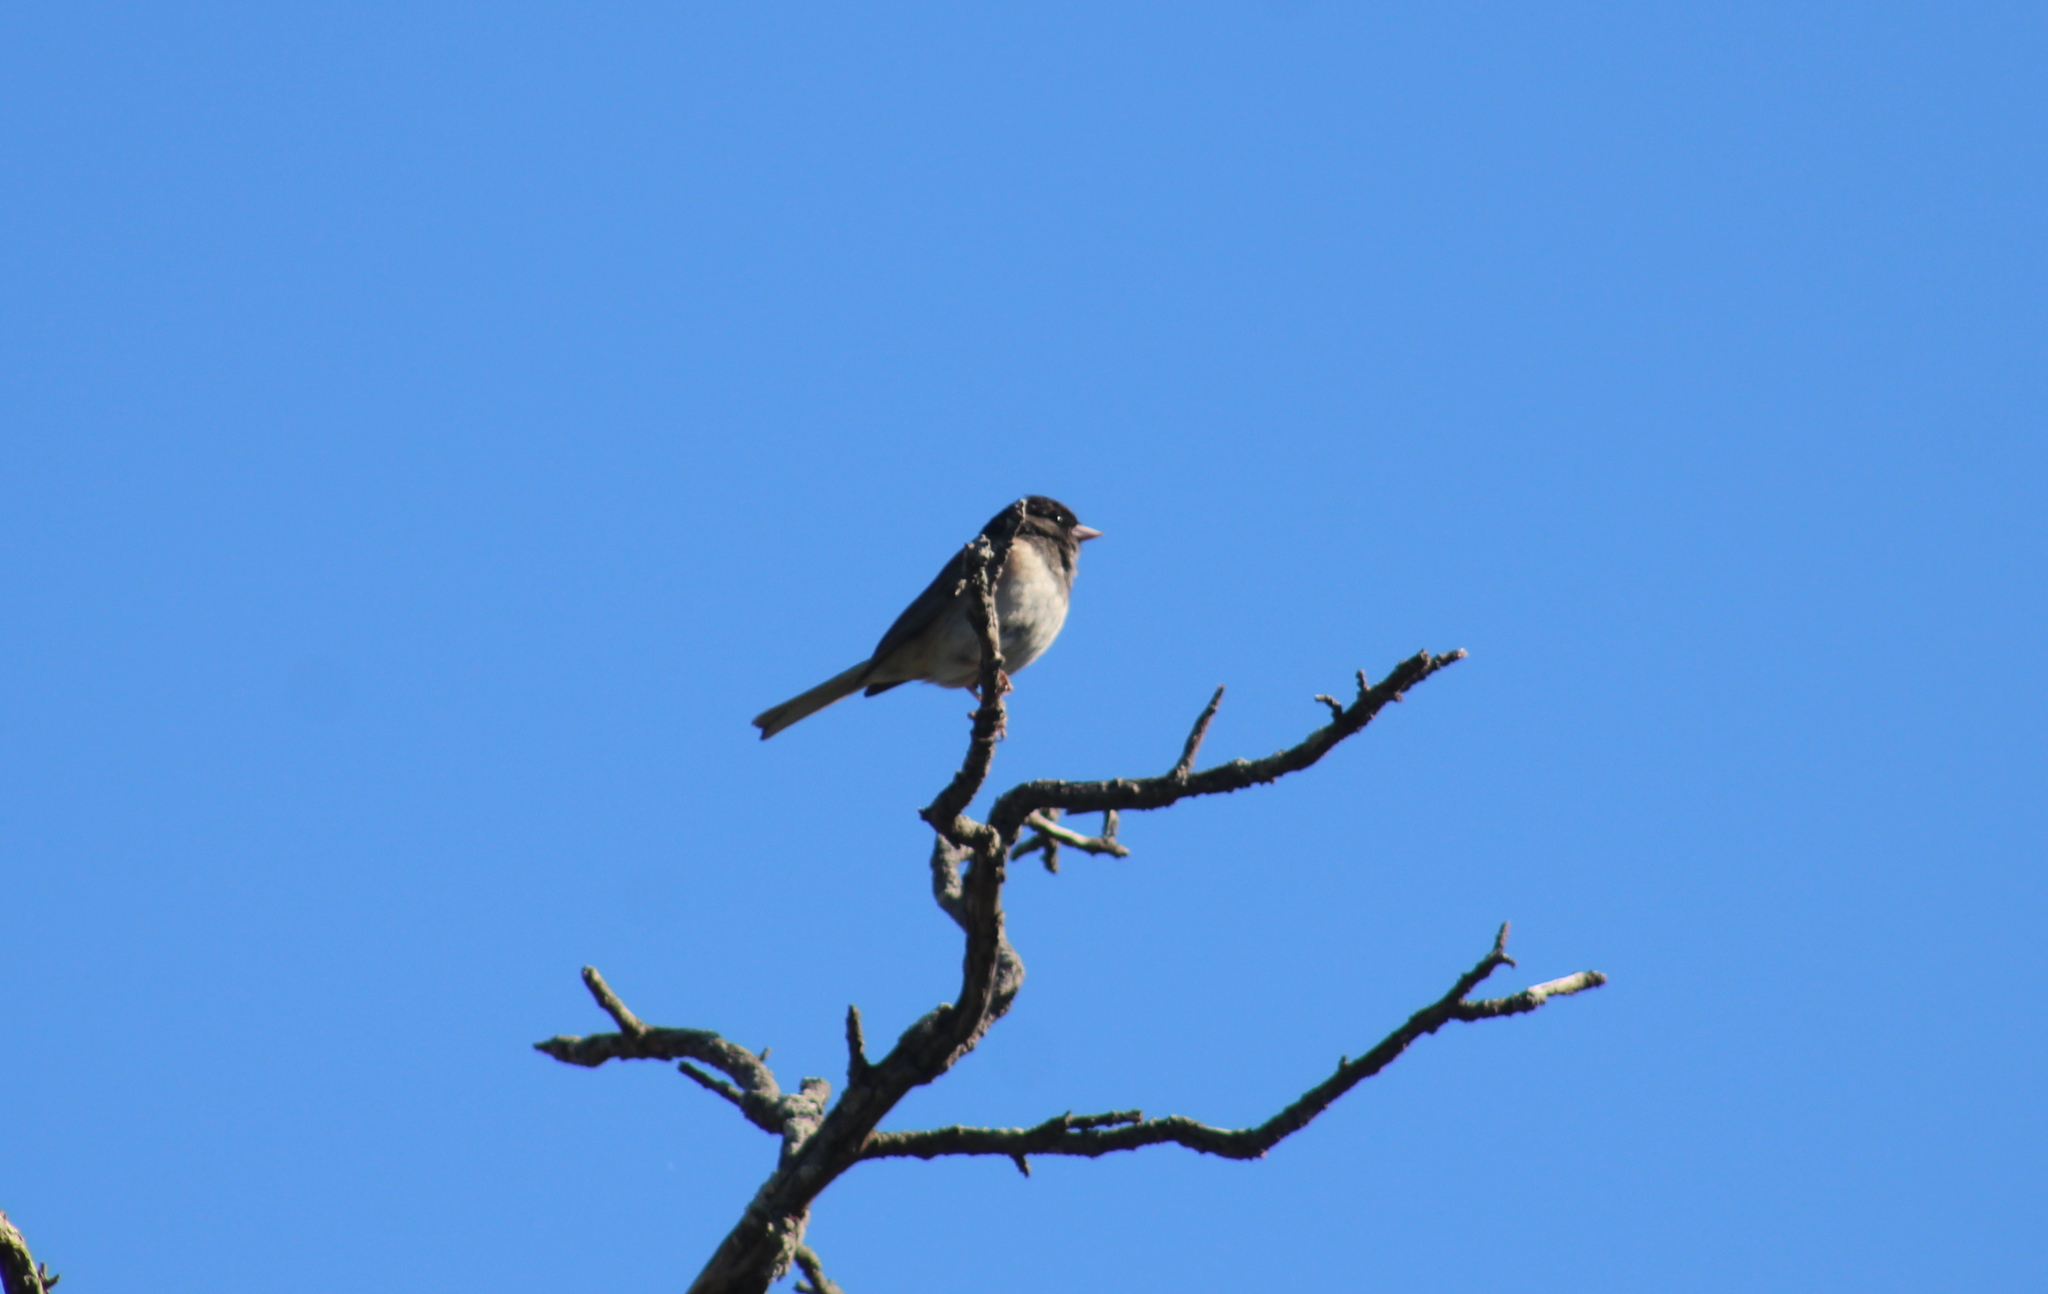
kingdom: Animalia
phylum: Chordata
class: Aves
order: Passeriformes
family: Passerellidae
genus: Junco
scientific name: Junco hyemalis
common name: Dark-eyed junco
